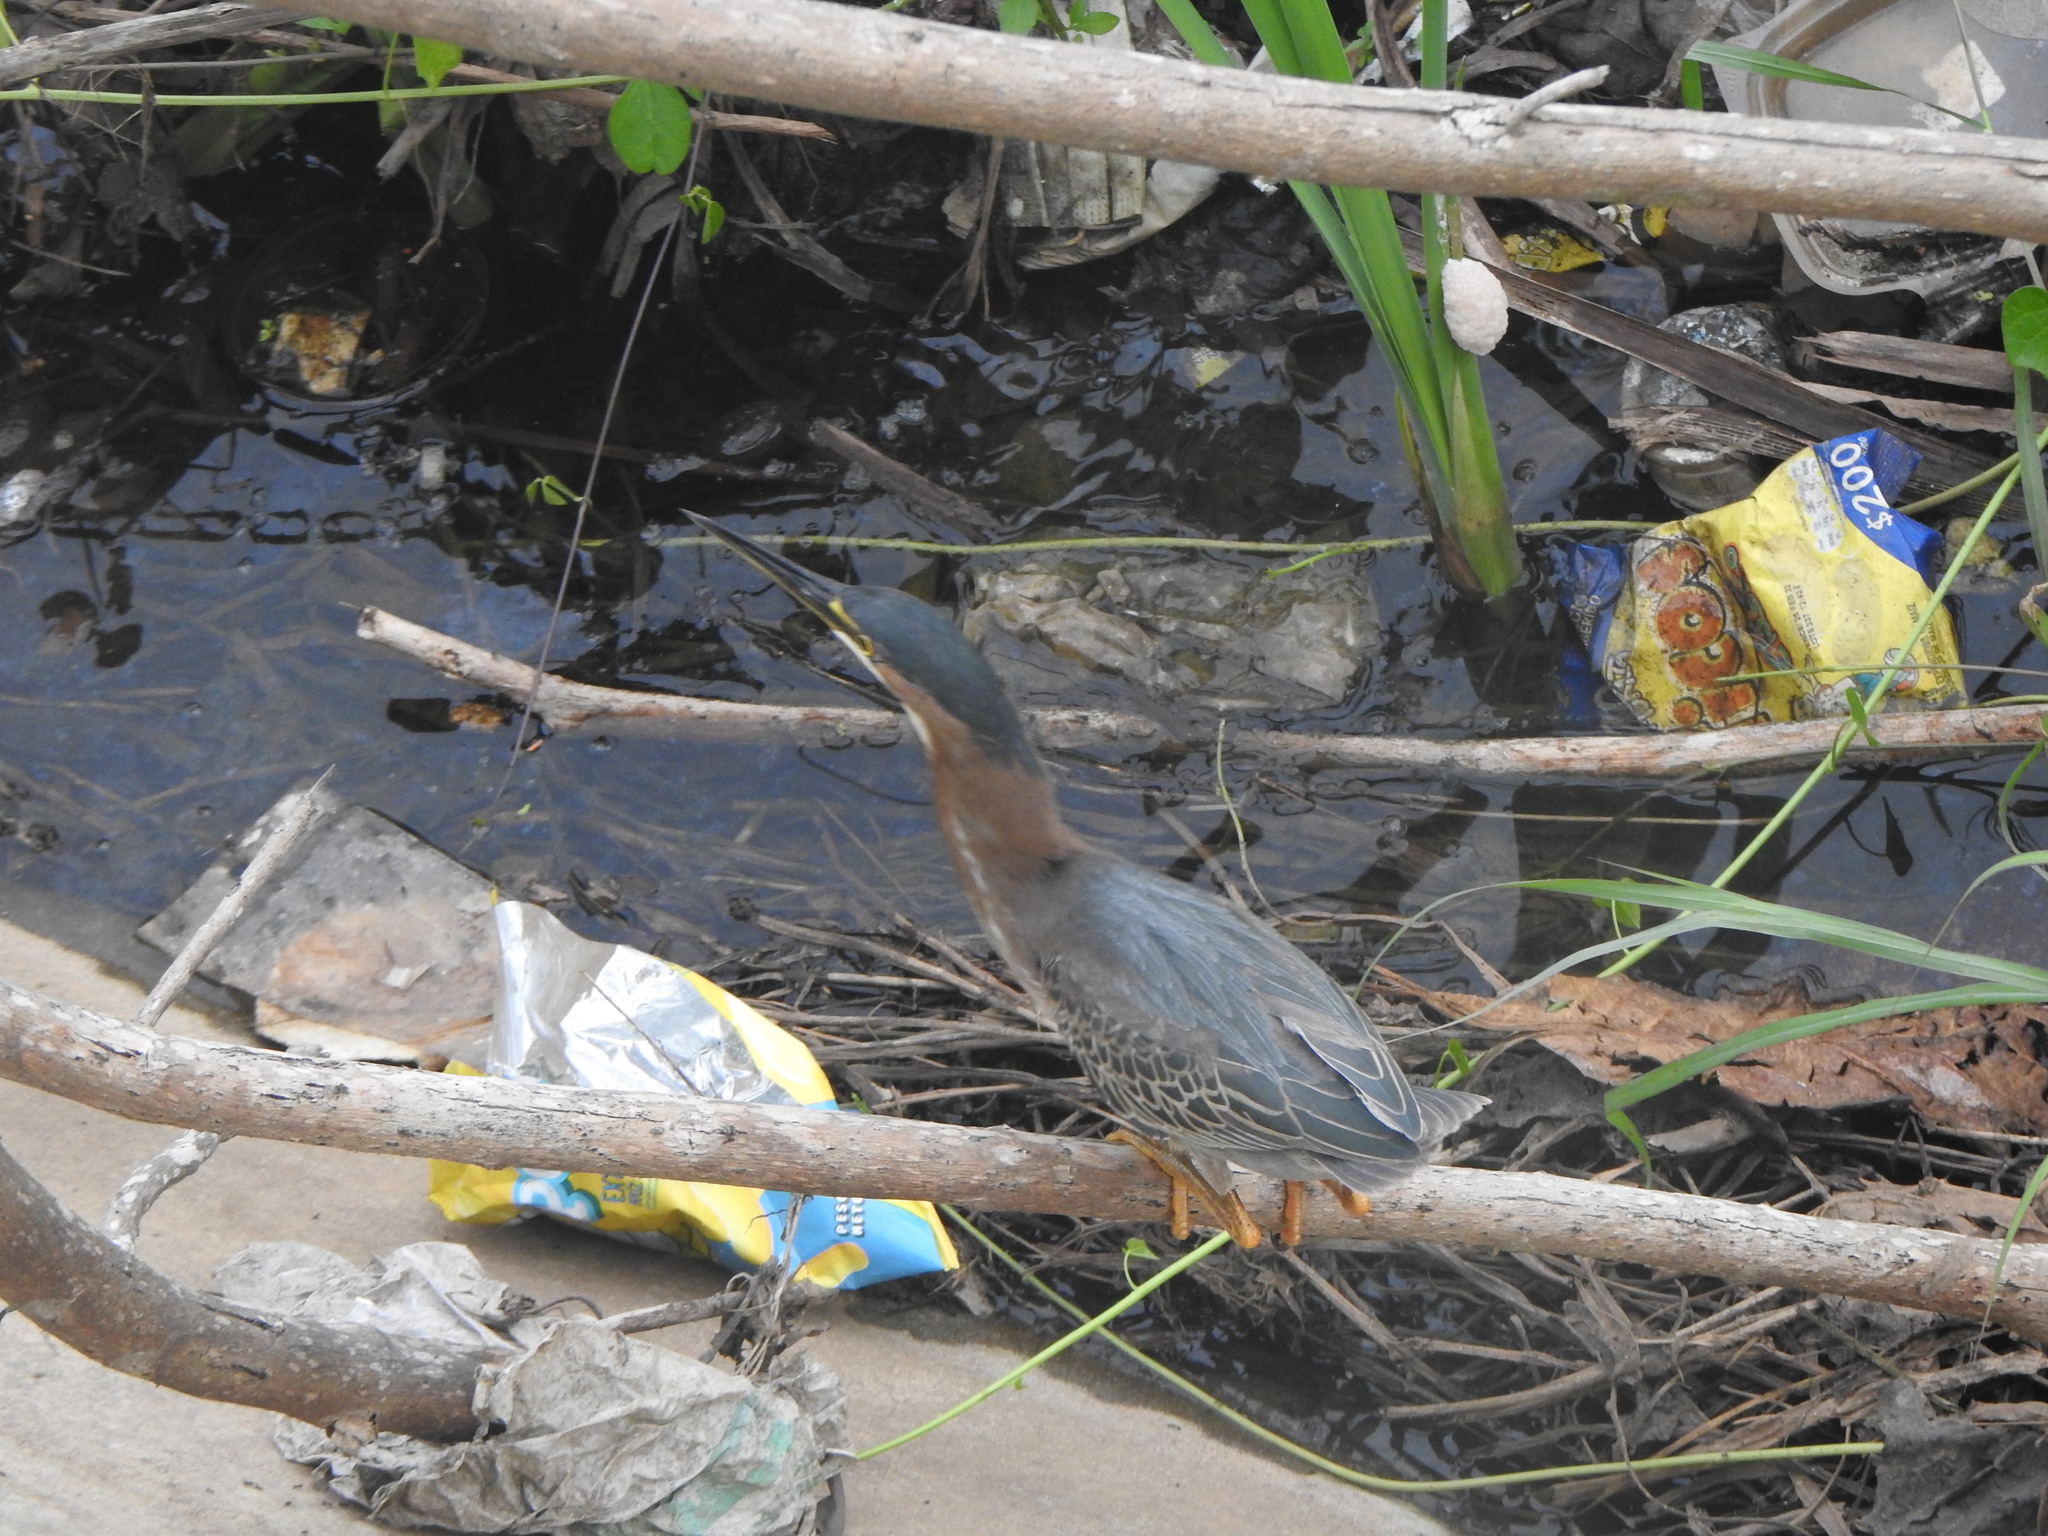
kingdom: Animalia
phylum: Chordata
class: Aves
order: Pelecaniformes
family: Ardeidae
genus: Butorides
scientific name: Butorides virescens
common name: Green heron
